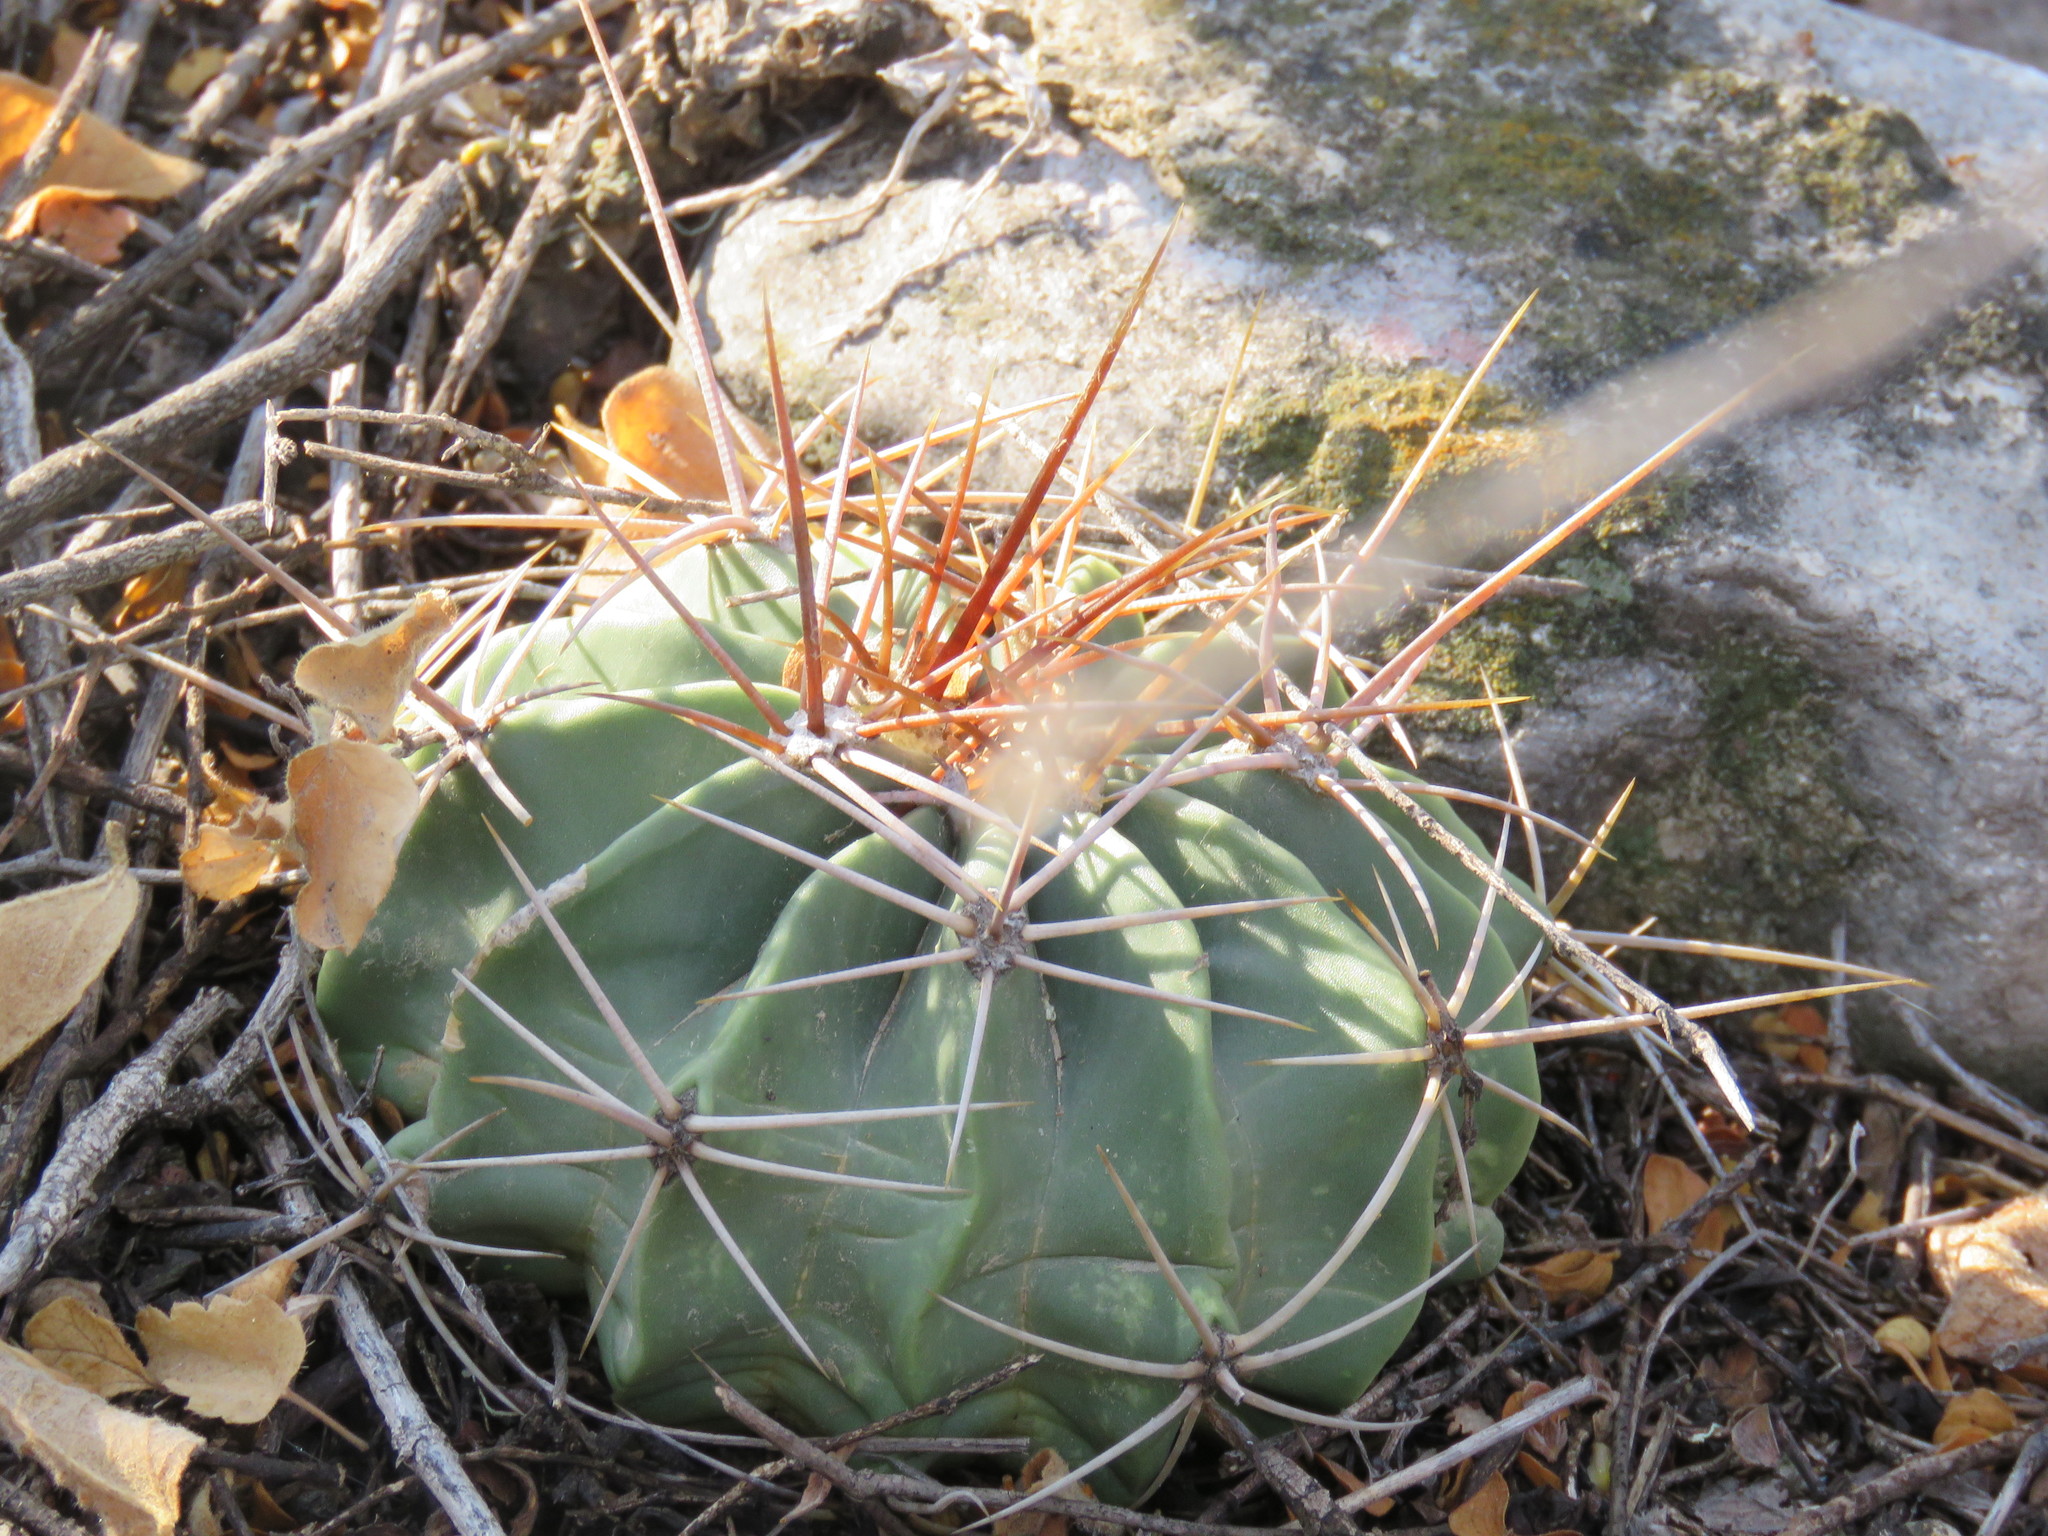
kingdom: Plantae
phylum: Tracheophyta
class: Magnoliopsida
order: Caryophyllales
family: Cactaceae
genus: Parrycactus
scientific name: Parrycactus echidne
